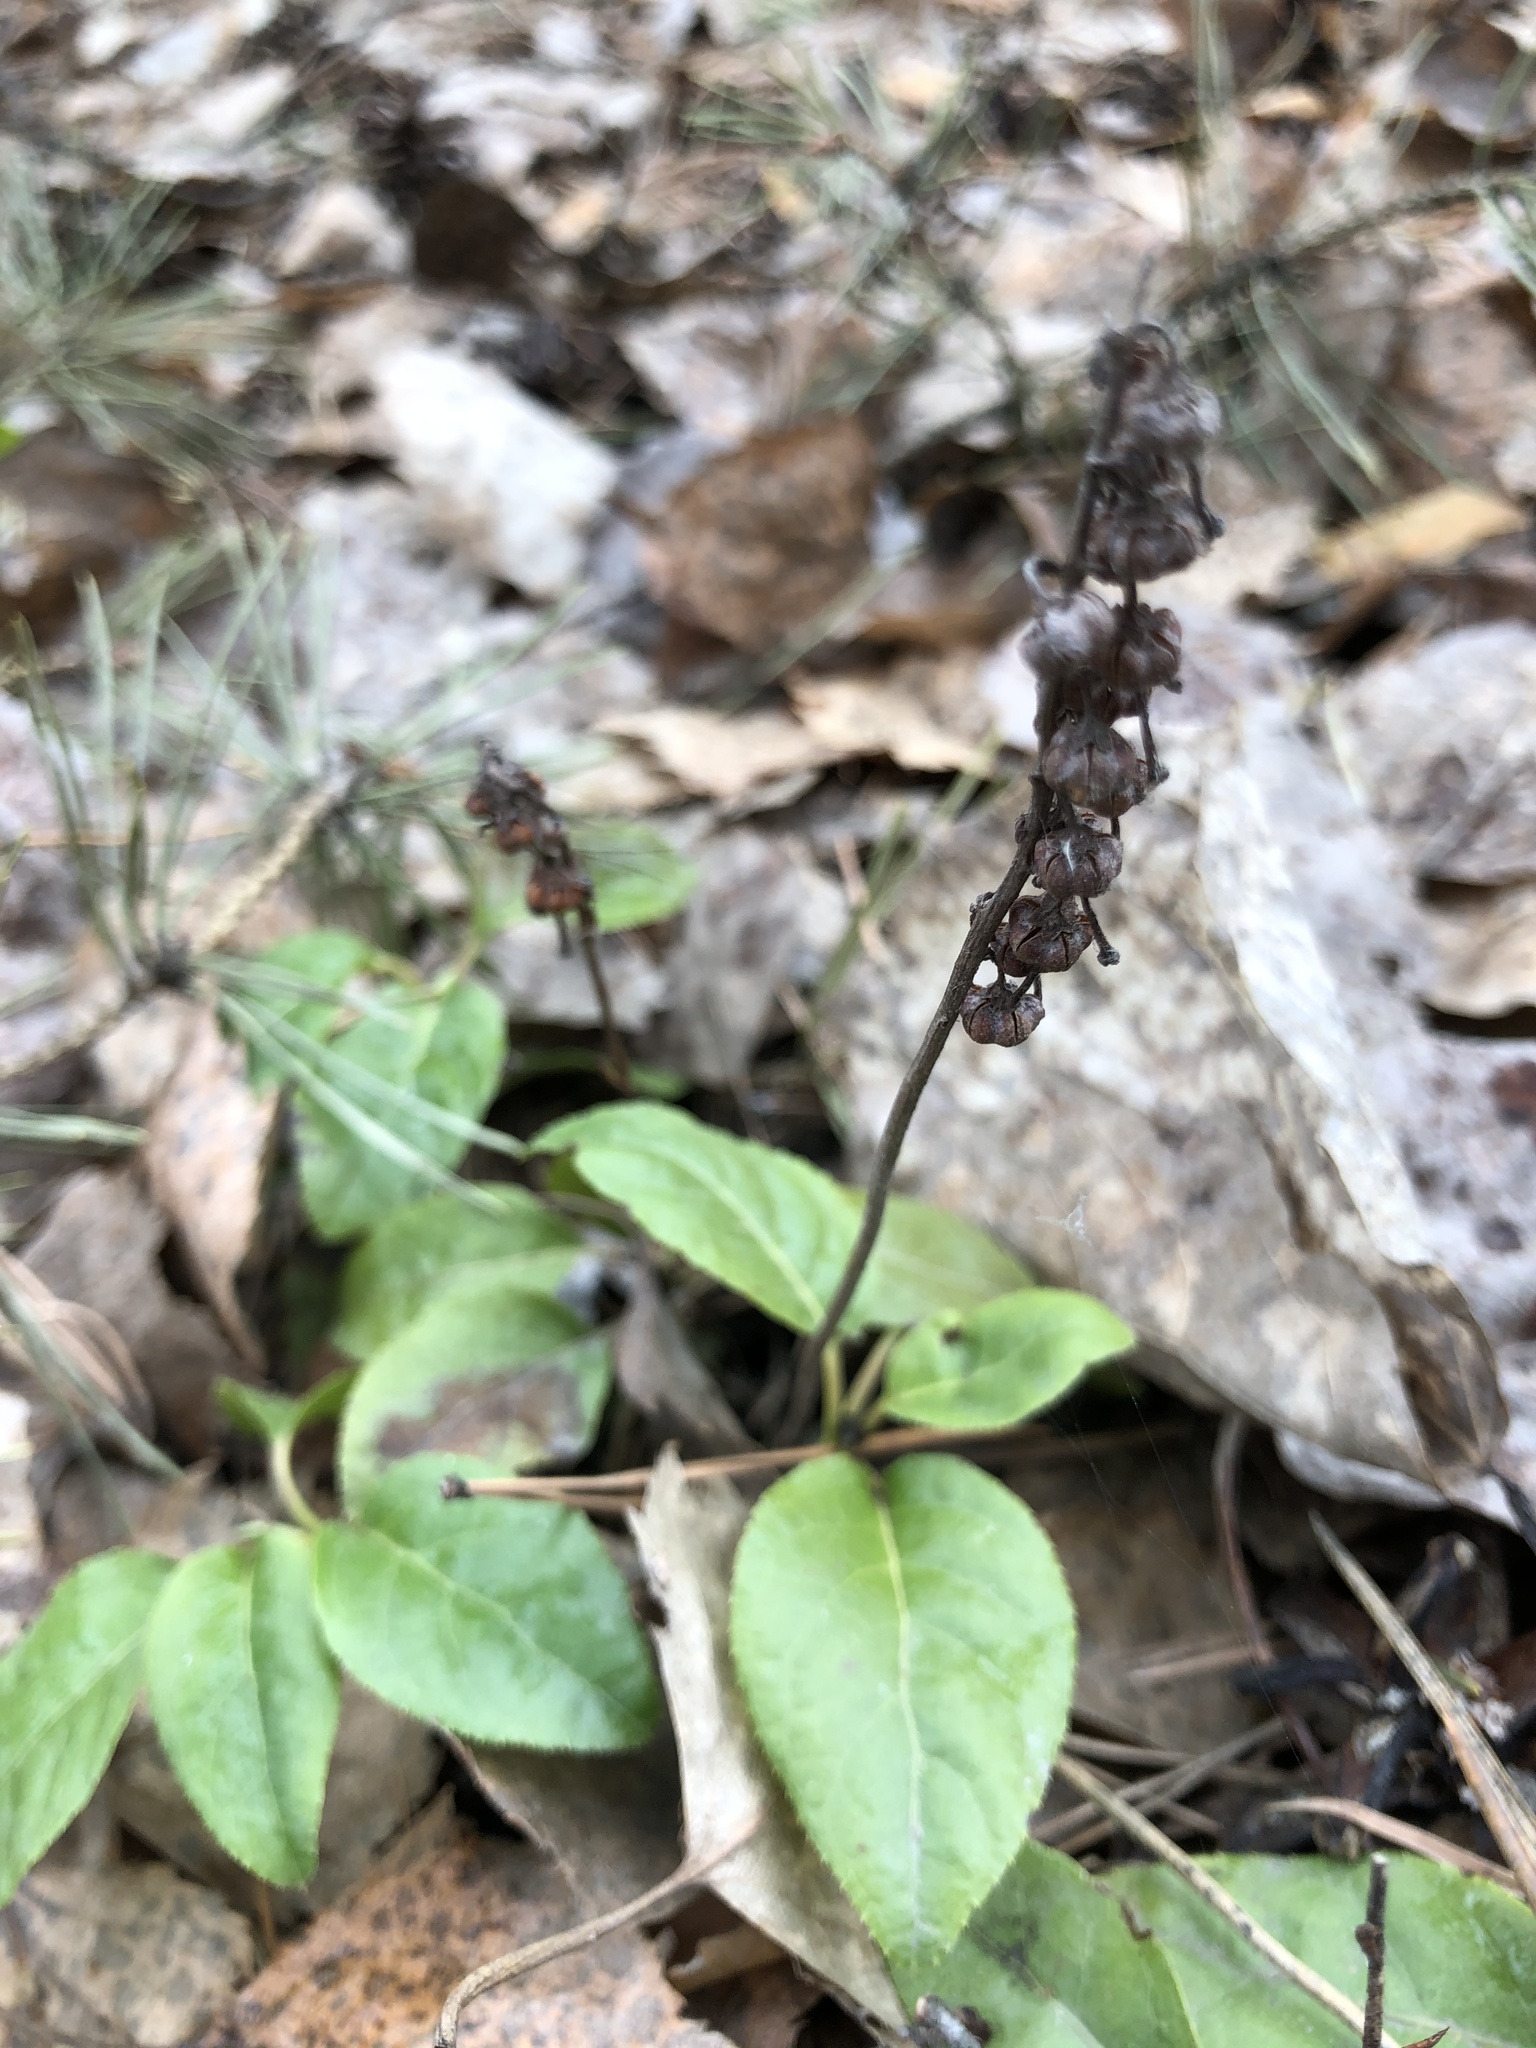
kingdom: Plantae
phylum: Tracheophyta
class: Magnoliopsida
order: Ericales
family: Ericaceae
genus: Orthilia
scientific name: Orthilia secunda
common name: One-sided orthilia
